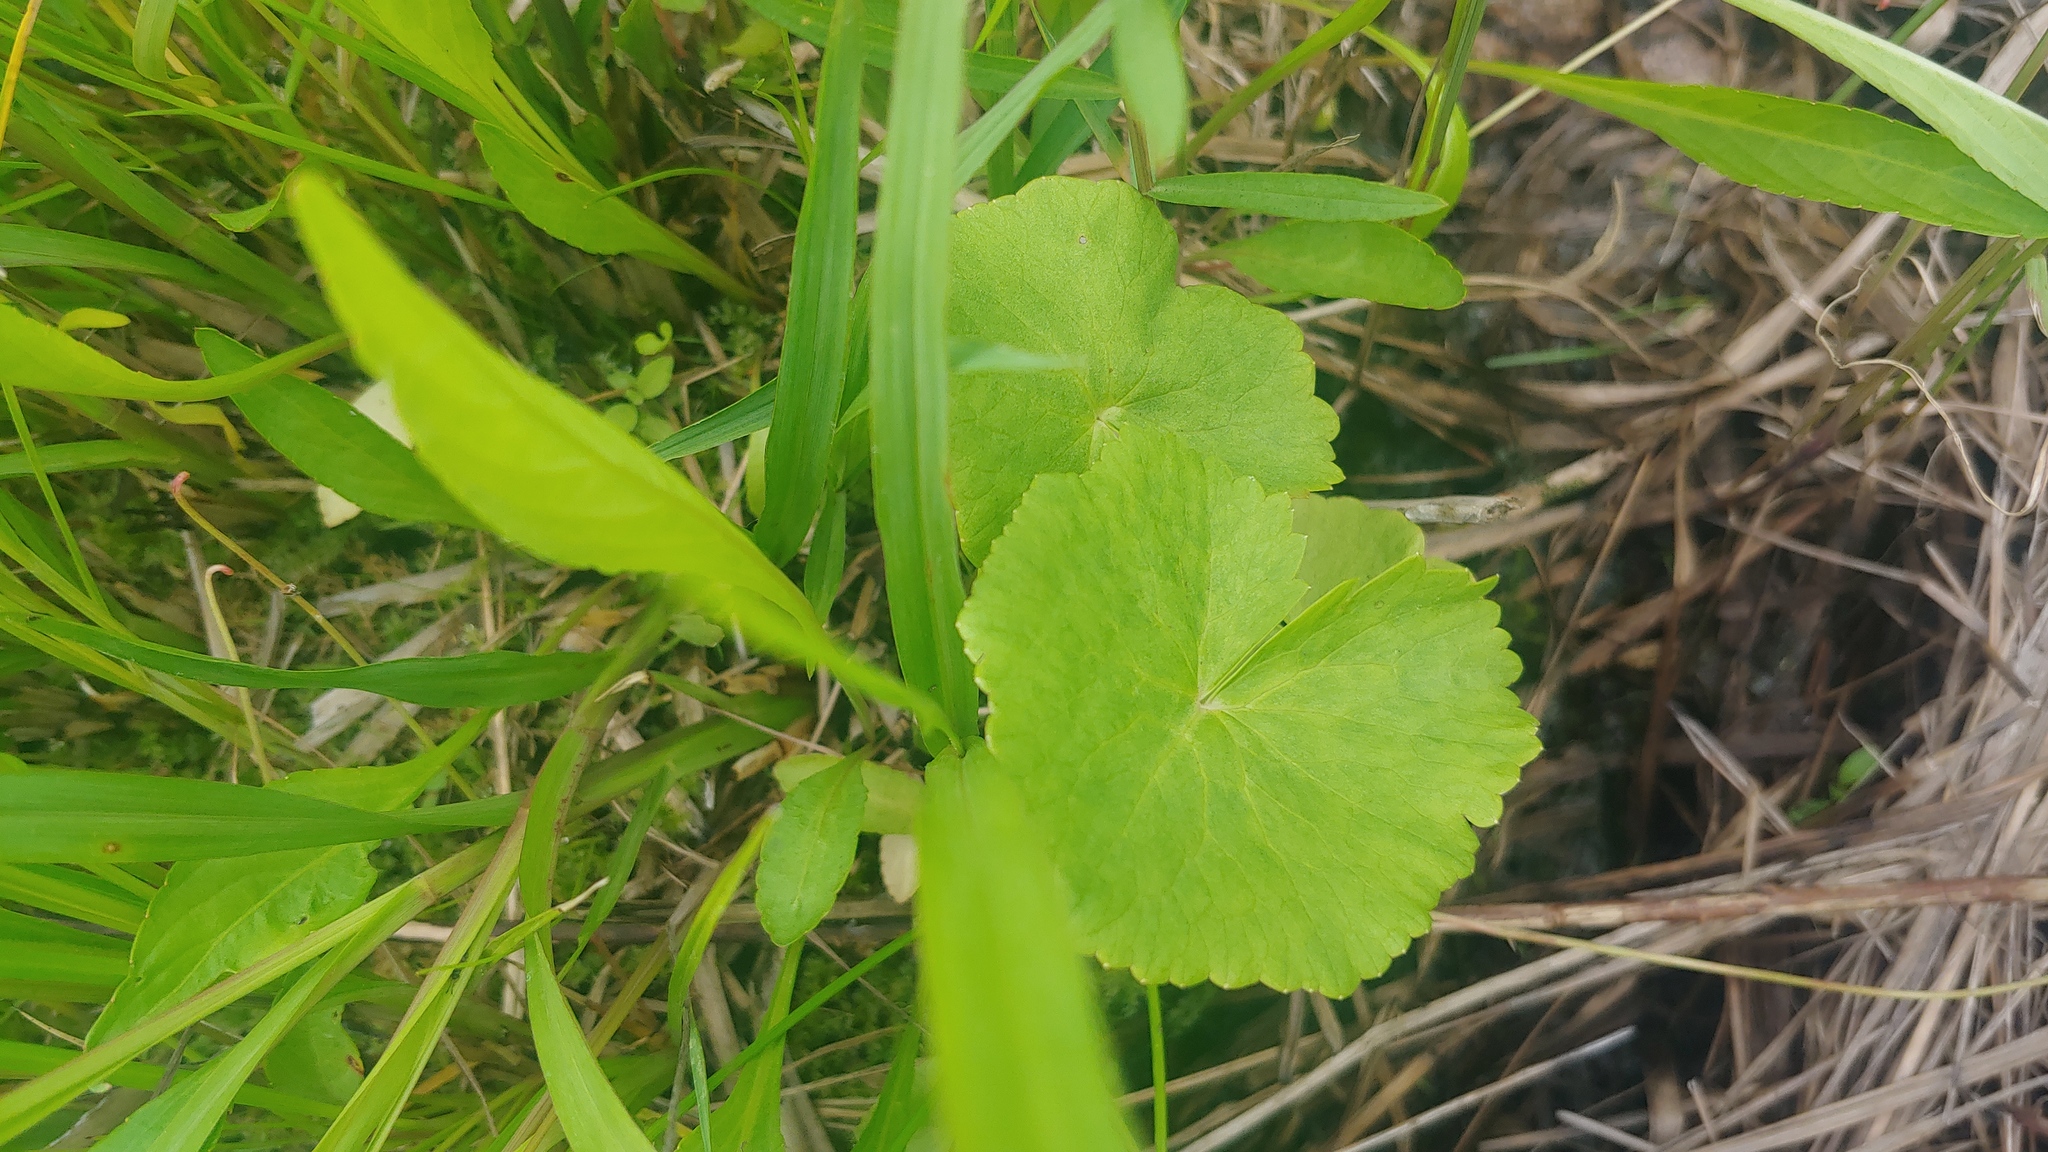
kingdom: Plantae
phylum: Tracheophyta
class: Magnoliopsida
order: Ranunculales
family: Ranunculaceae
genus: Caltha
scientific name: Caltha palustris
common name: Marsh marigold
